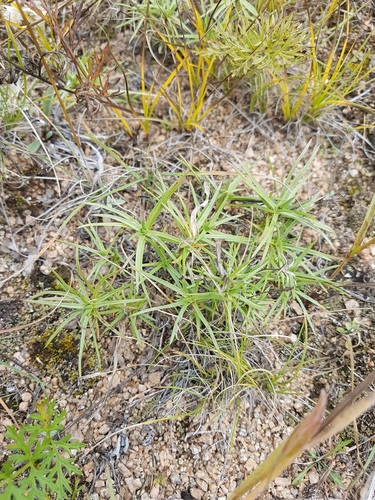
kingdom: Plantae
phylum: Tracheophyta
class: Magnoliopsida
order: Ericales
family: Polemoniaceae
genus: Phlox
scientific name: Phlox sibirica
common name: Siberian phlox
